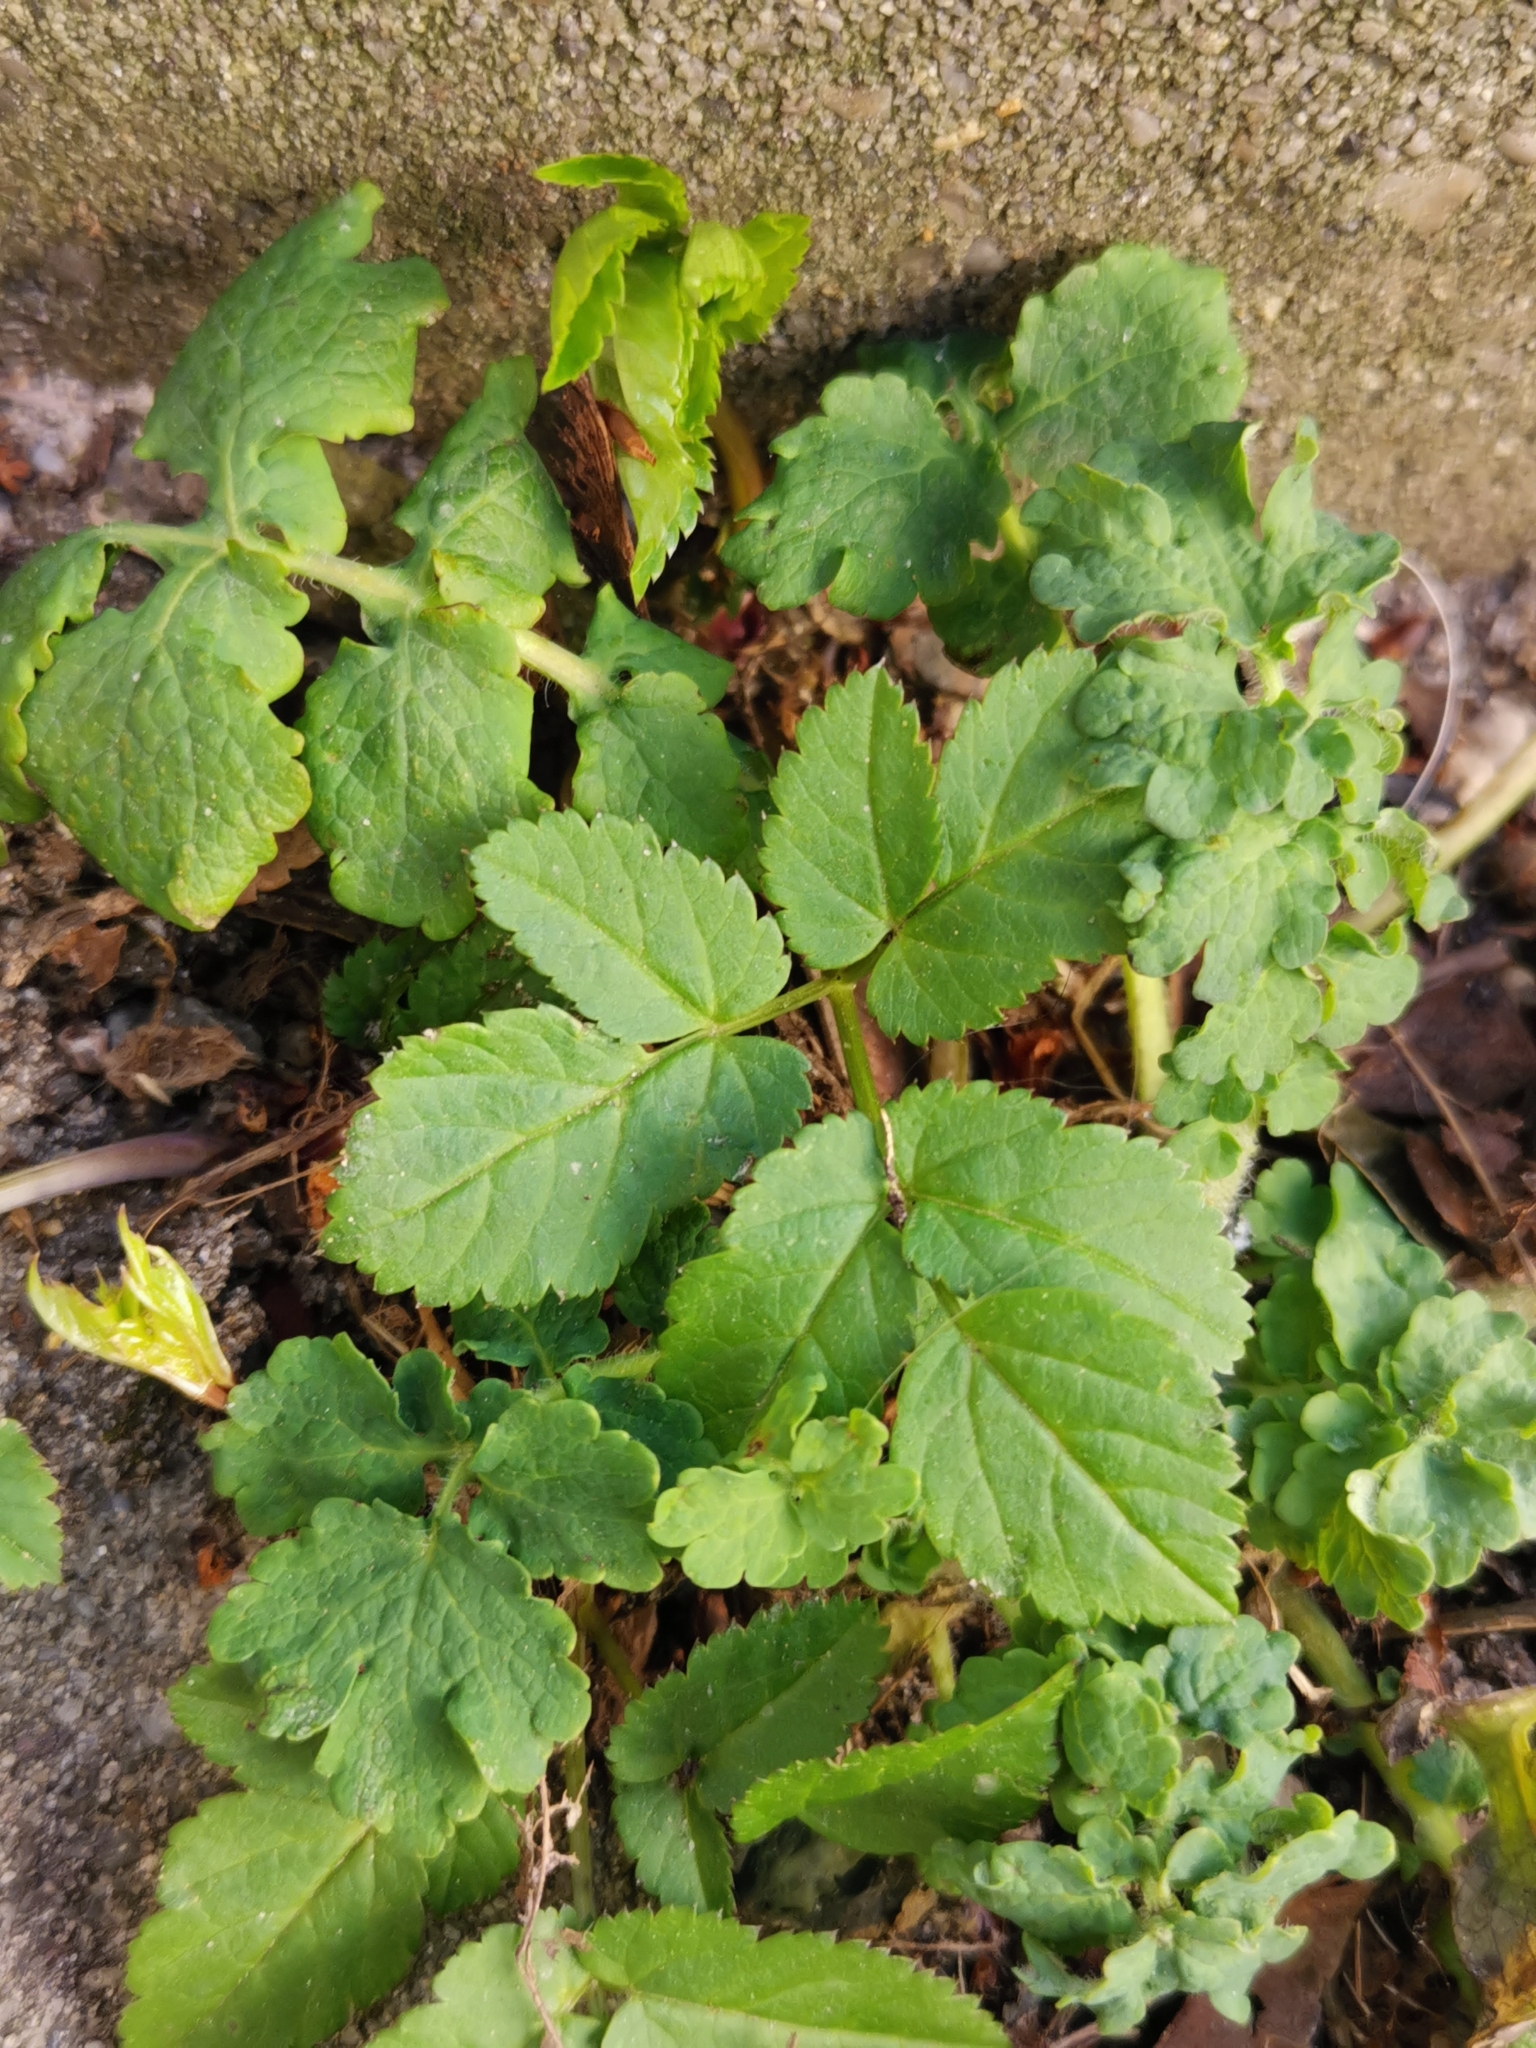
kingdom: Plantae
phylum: Tracheophyta
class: Magnoliopsida
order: Apiales
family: Apiaceae
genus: Aegopodium
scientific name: Aegopodium podagraria
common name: Ground-elder
